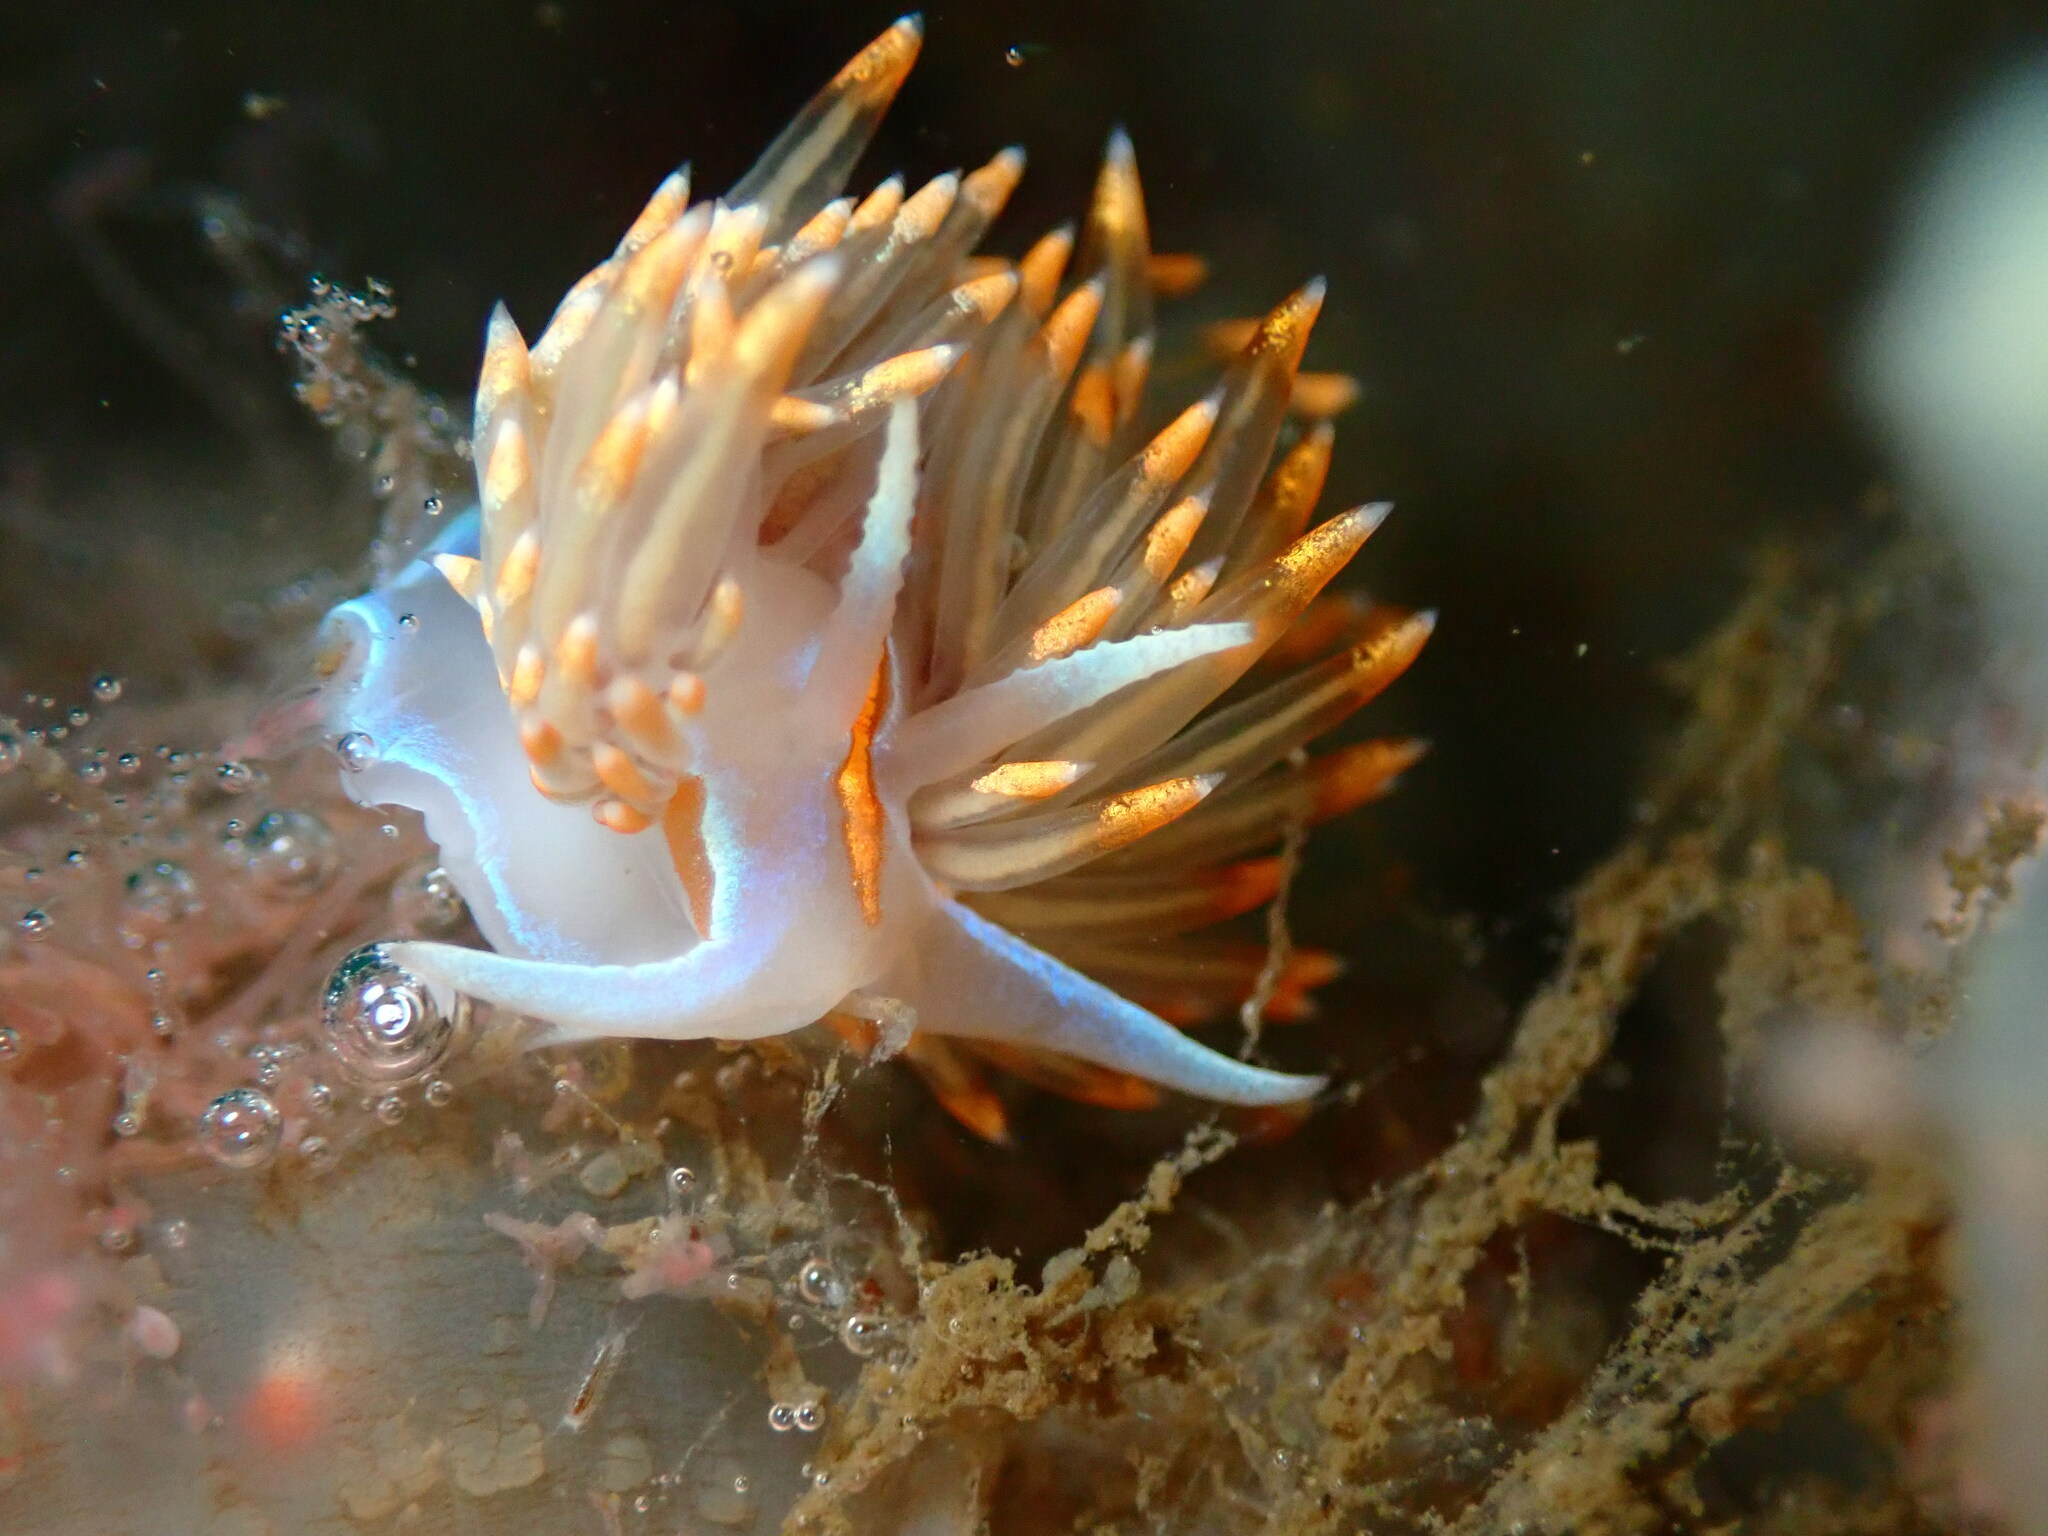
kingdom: Animalia
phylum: Mollusca
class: Gastropoda
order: Nudibranchia
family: Myrrhinidae
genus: Hermissenda
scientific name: Hermissenda opalescens
